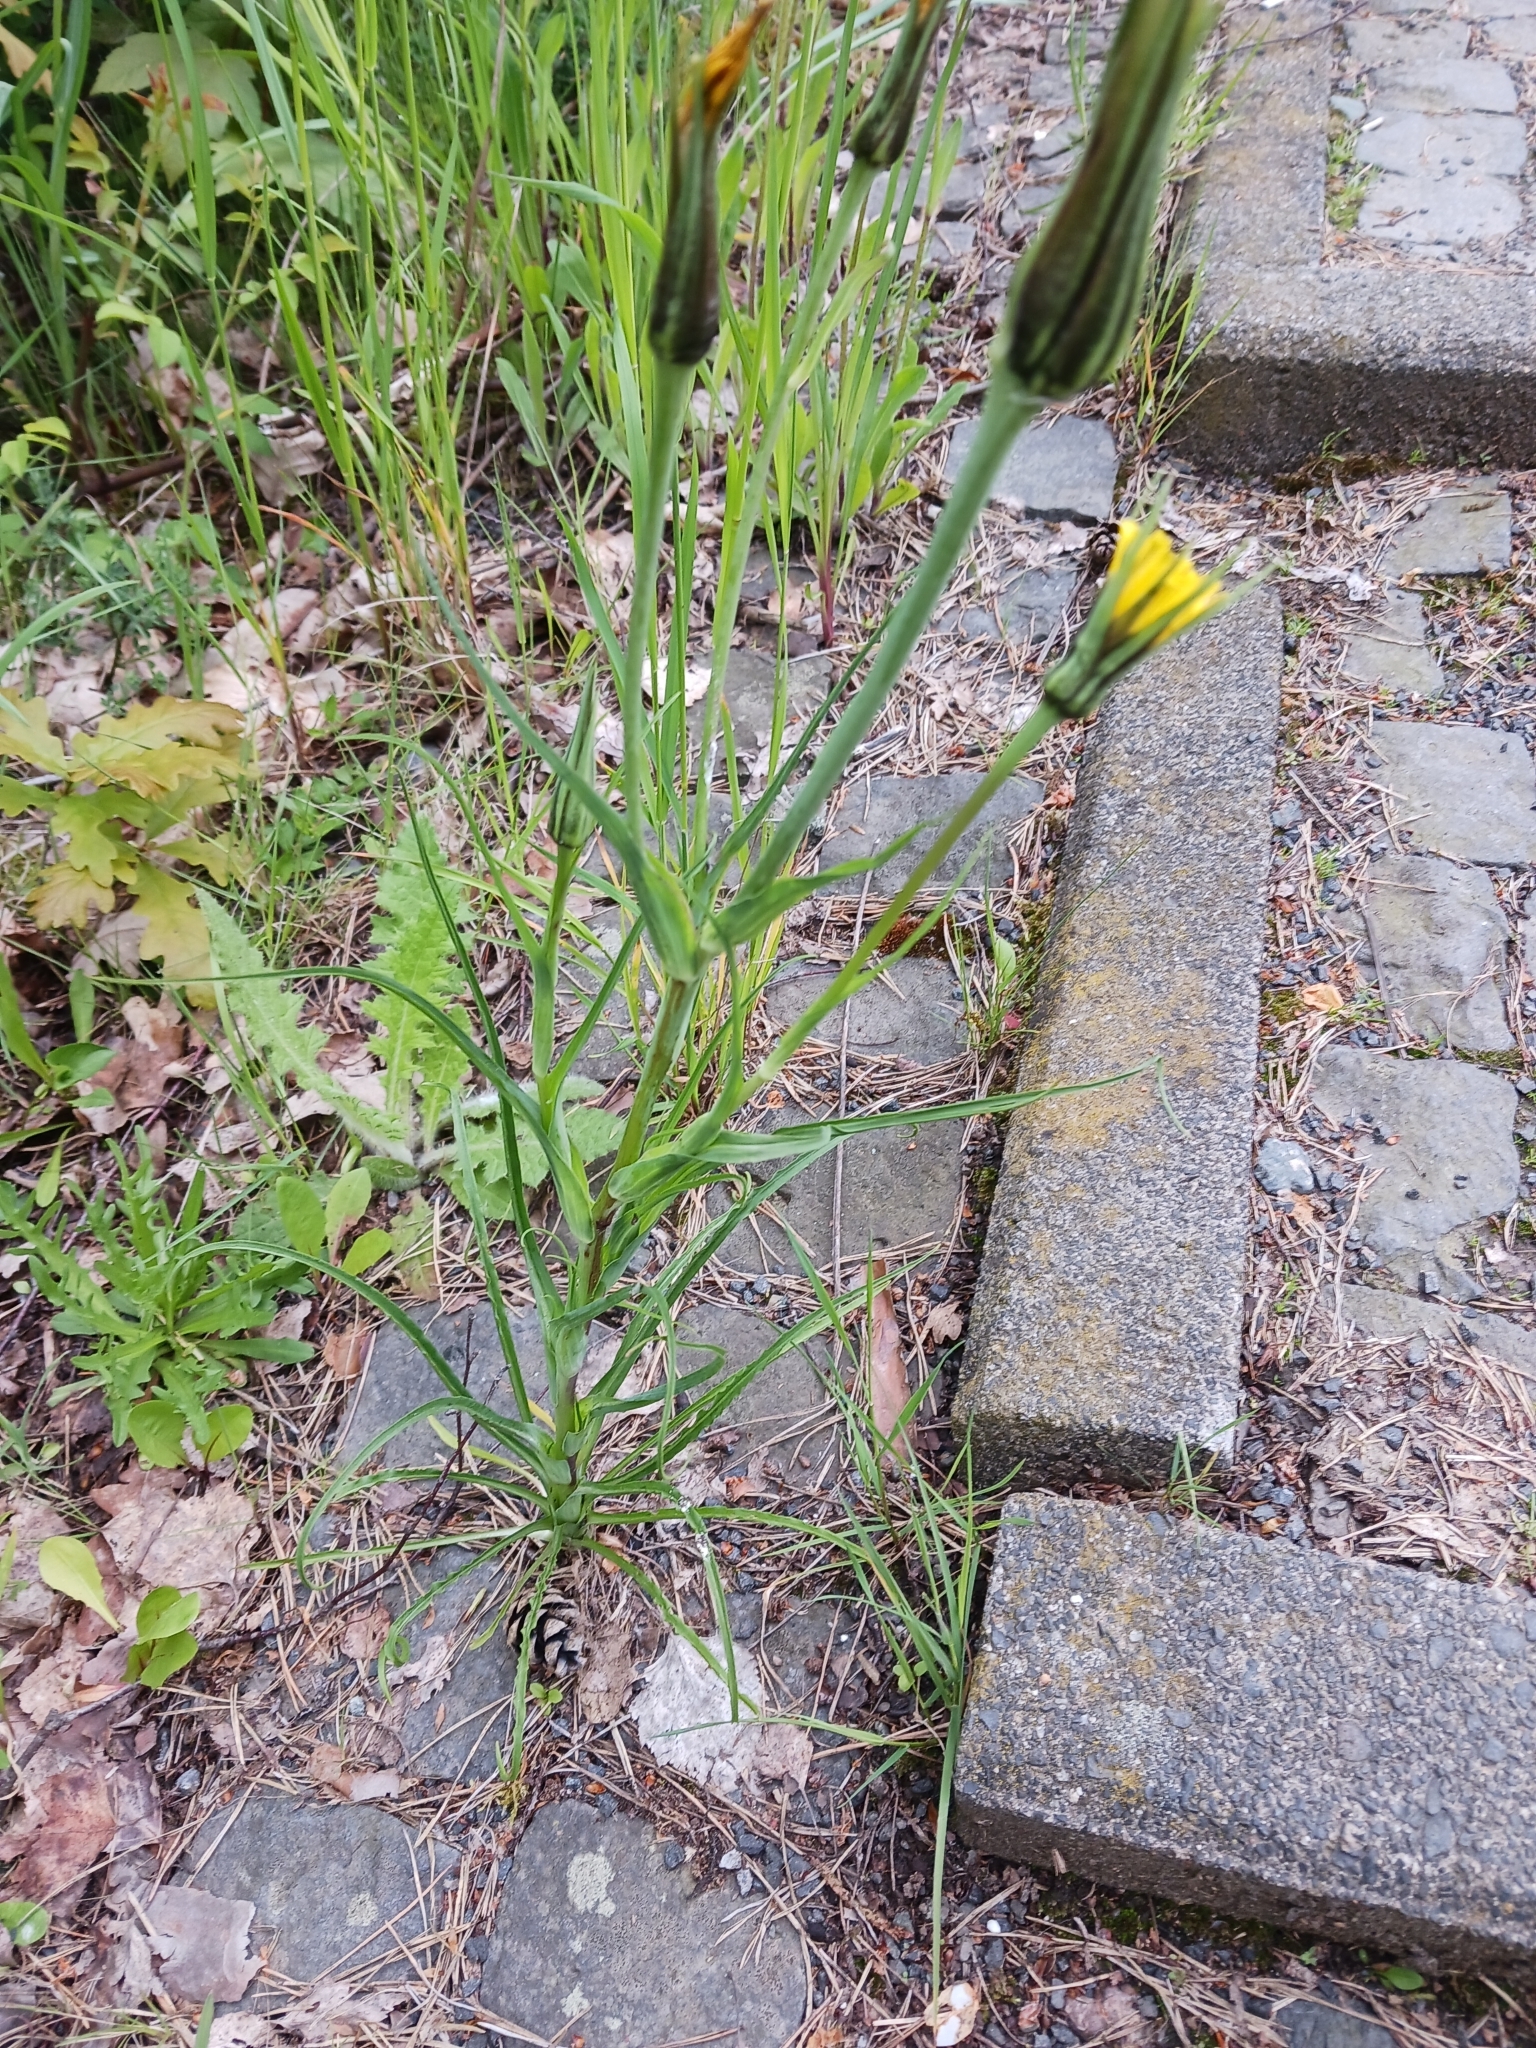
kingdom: Plantae
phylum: Tracheophyta
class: Magnoliopsida
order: Asterales
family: Asteraceae
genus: Tragopogon
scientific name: Tragopogon pratensis
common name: Goat's-beard
